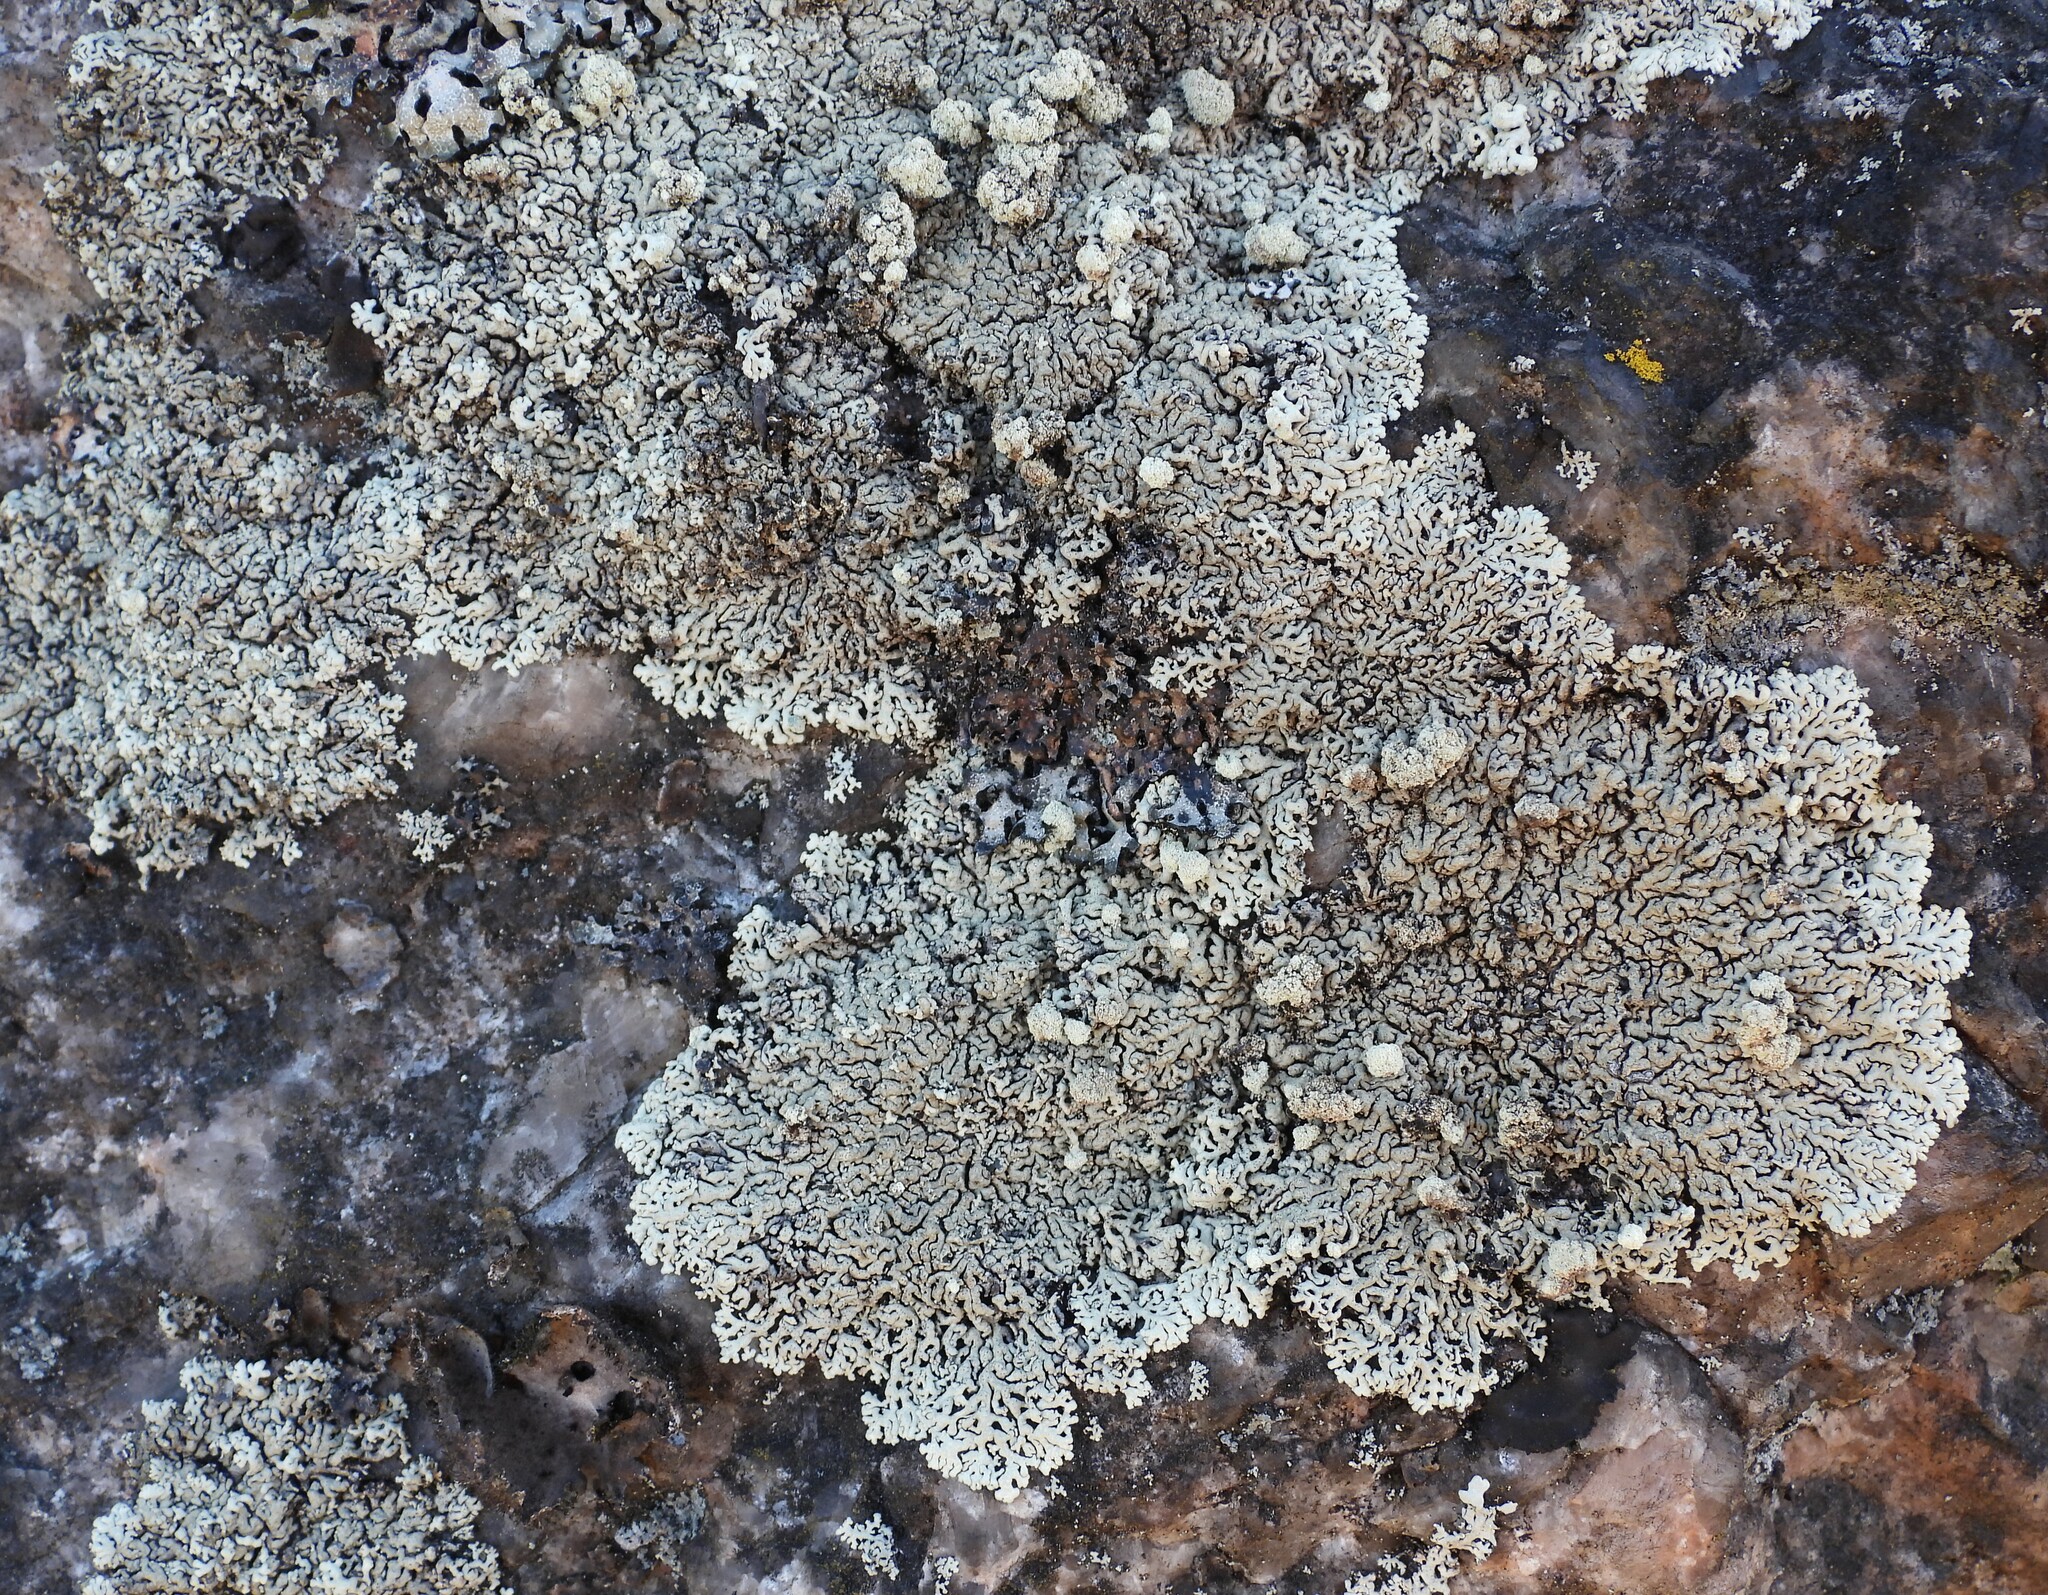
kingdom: Fungi
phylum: Ascomycota
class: Lecanoromycetes
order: Lecanorales
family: Parmeliaceae
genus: Arctoparmelia
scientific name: Arctoparmelia incurva
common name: Bent ring lichen
